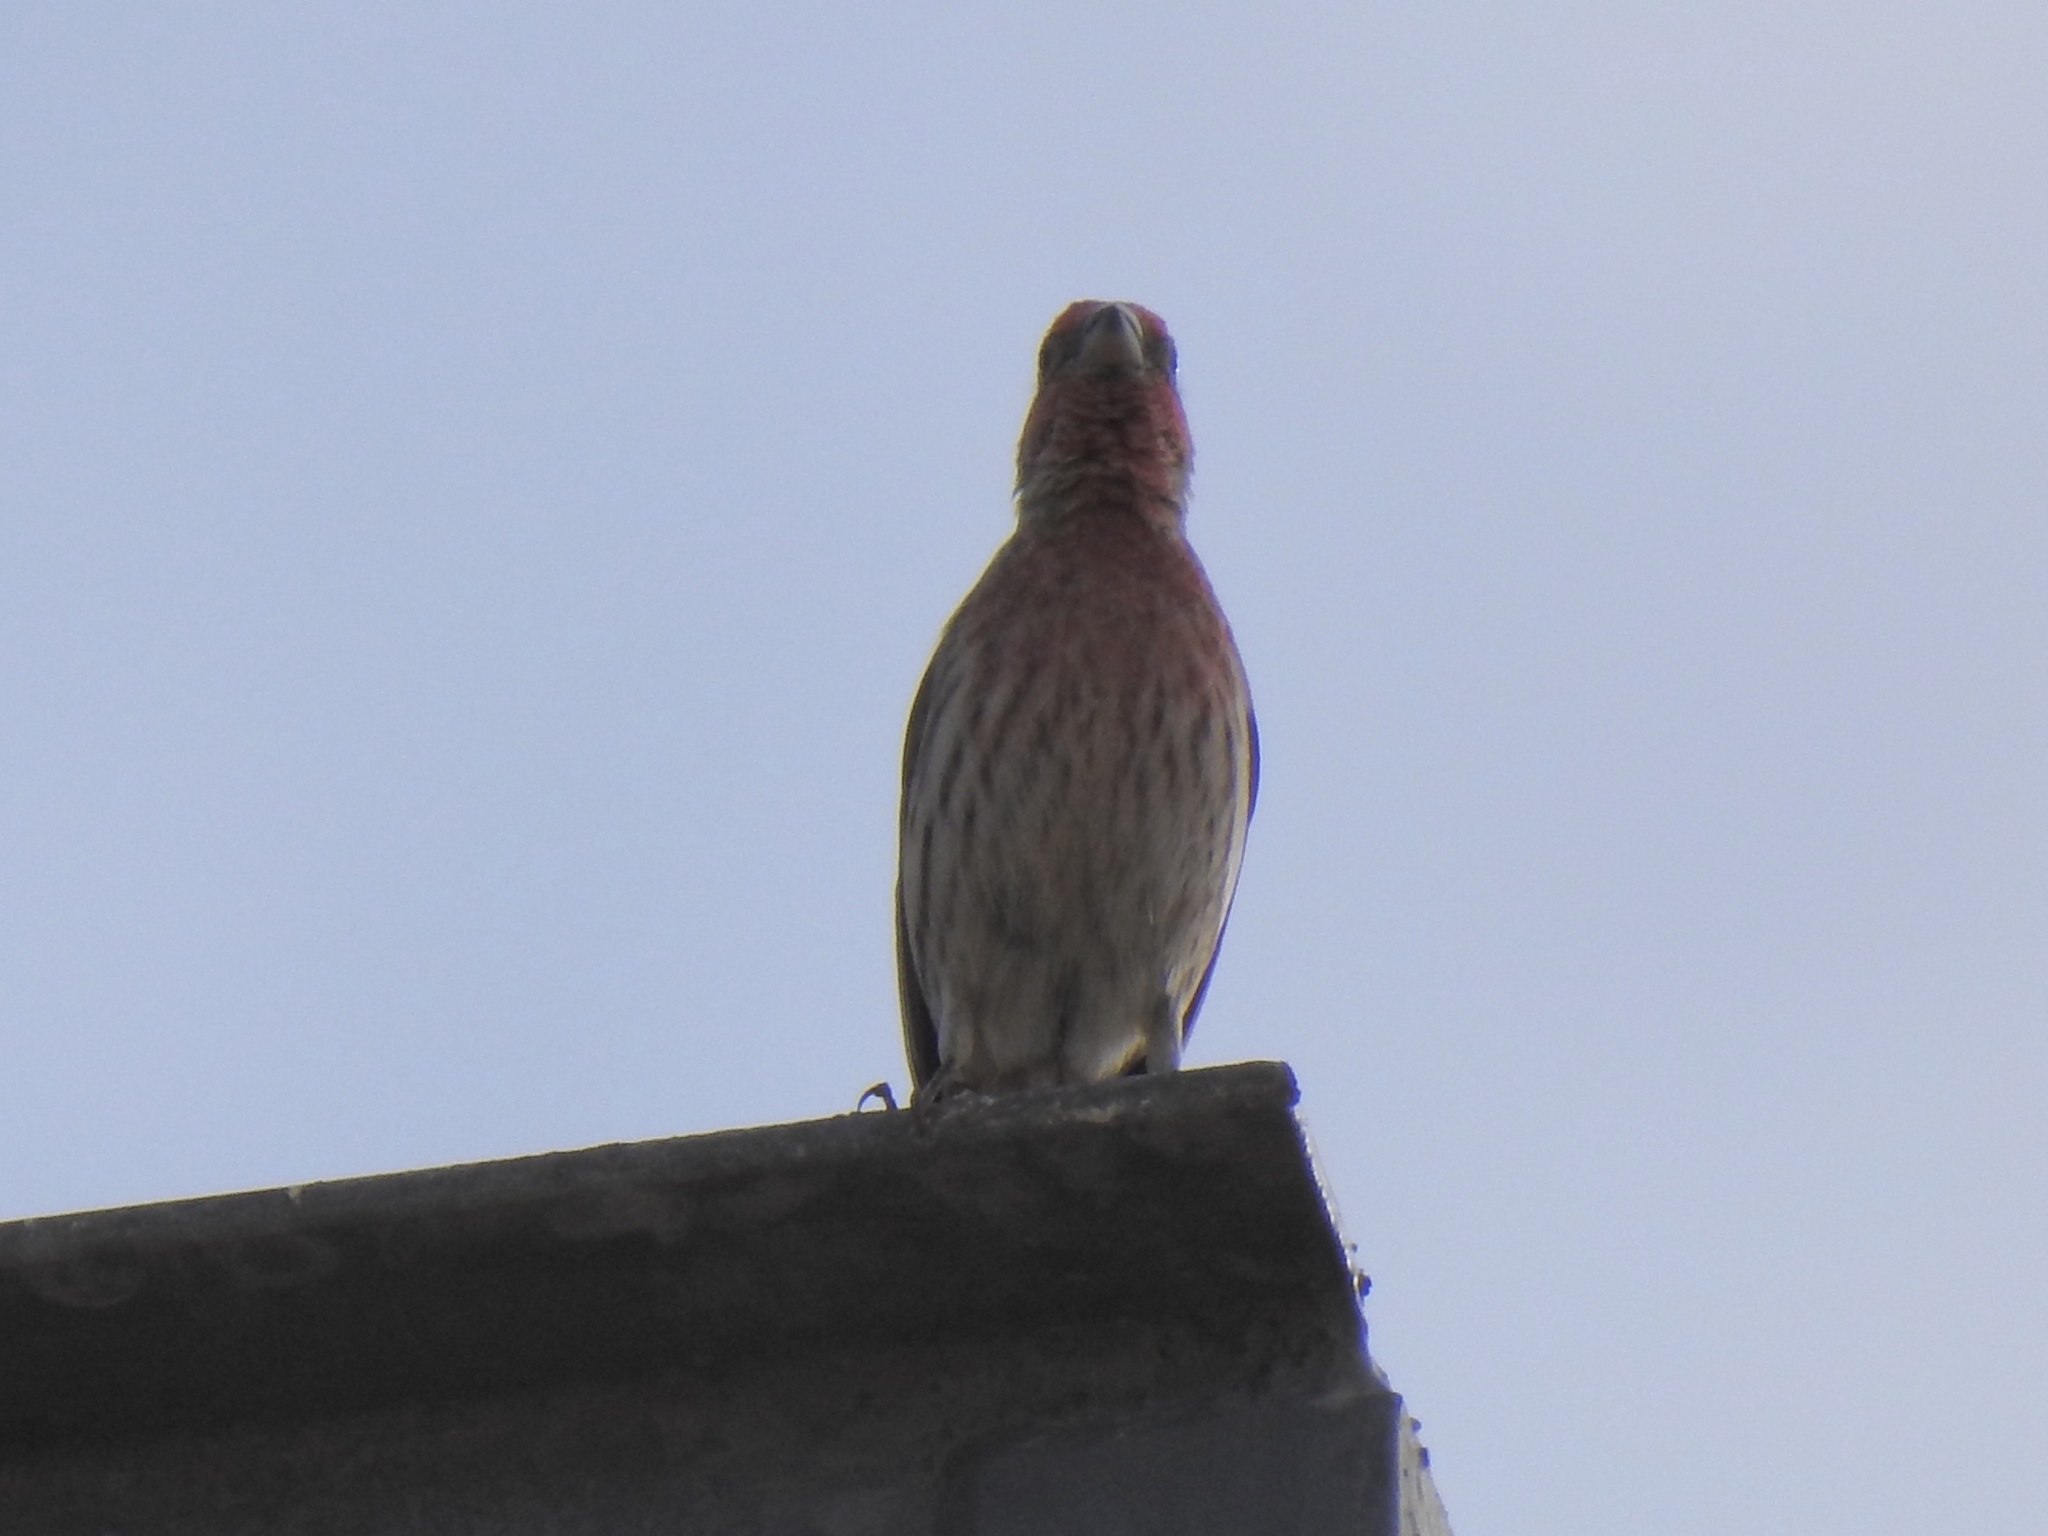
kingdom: Animalia
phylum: Chordata
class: Aves
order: Passeriformes
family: Fringillidae
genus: Haemorhous
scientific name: Haemorhous mexicanus
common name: House finch
